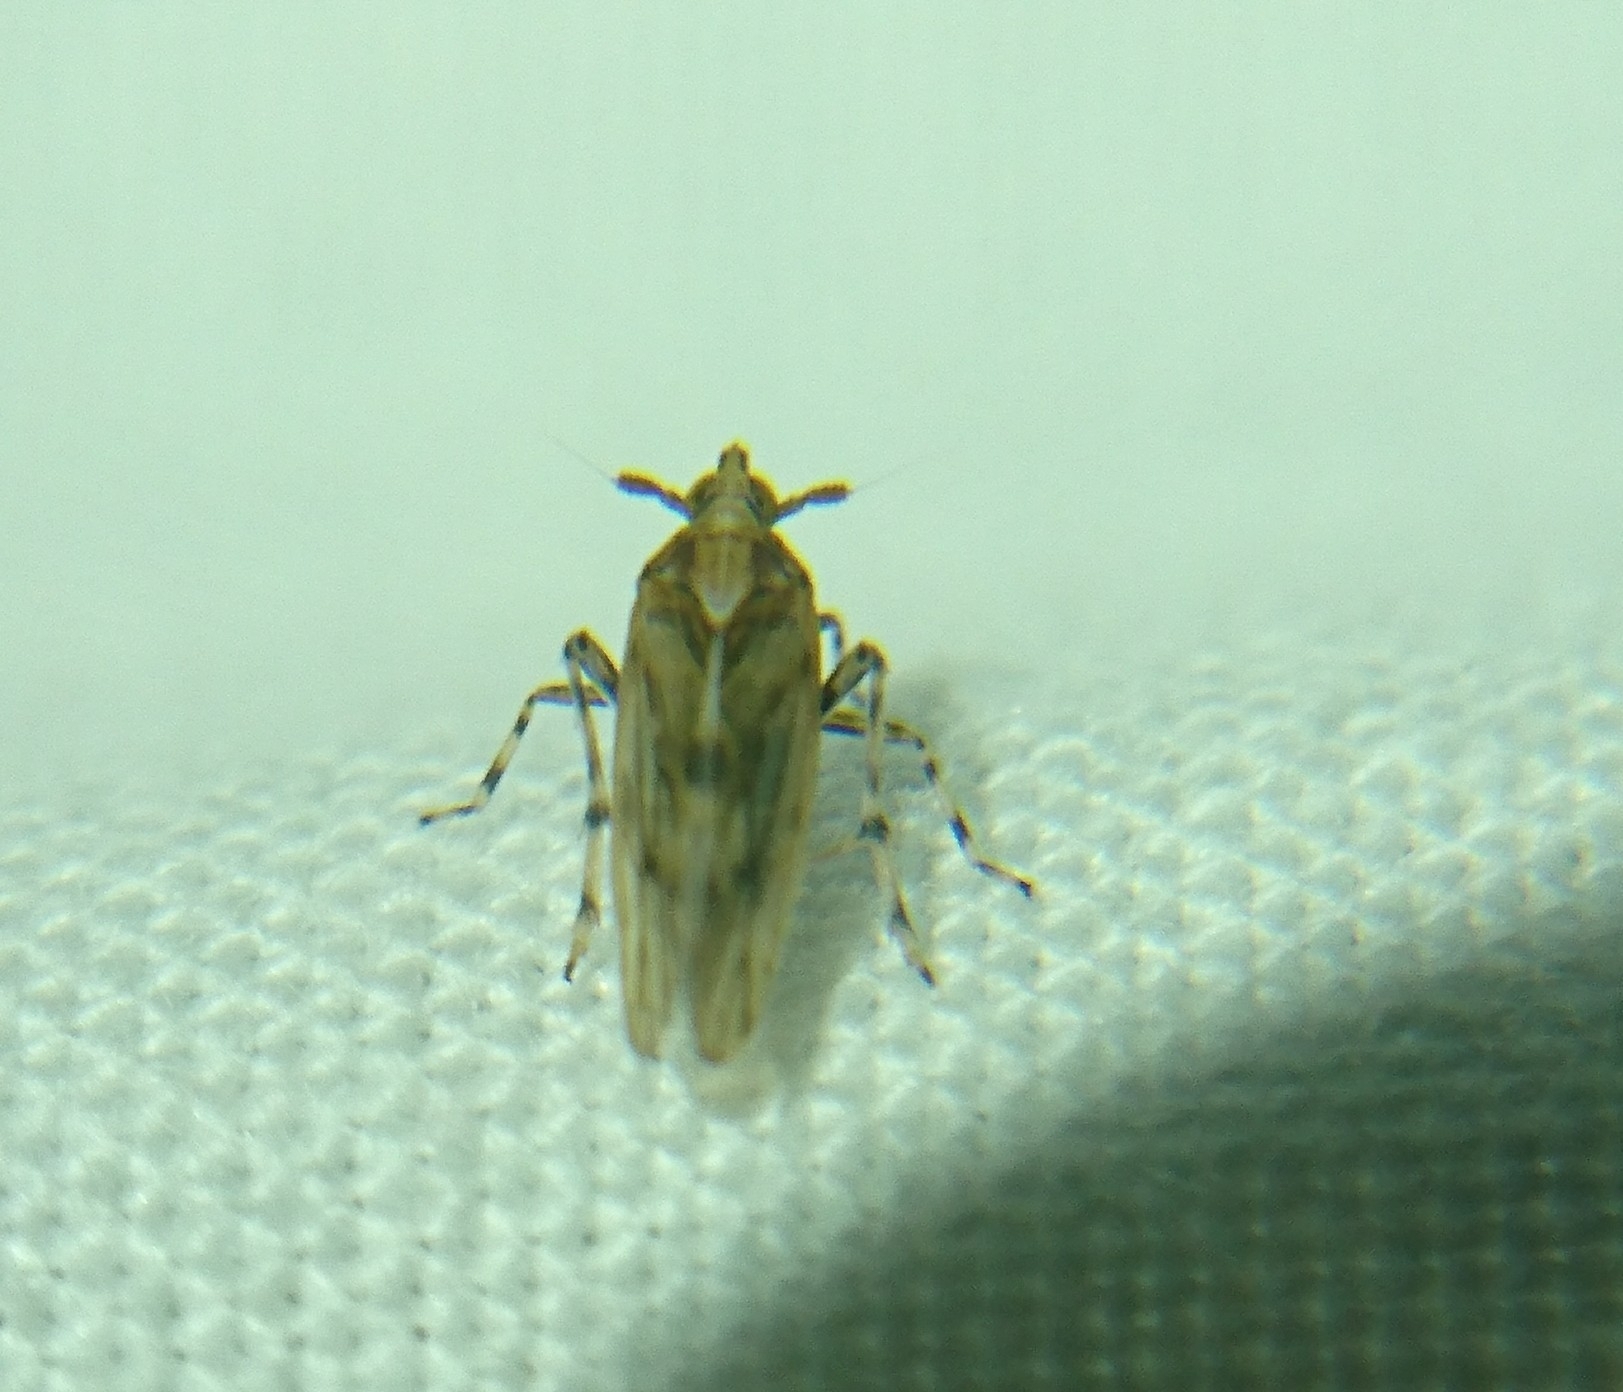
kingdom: Animalia
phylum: Arthropoda
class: Insecta
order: Hemiptera
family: Delphacidae
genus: Megamelus
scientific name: Megamelus palaetus
